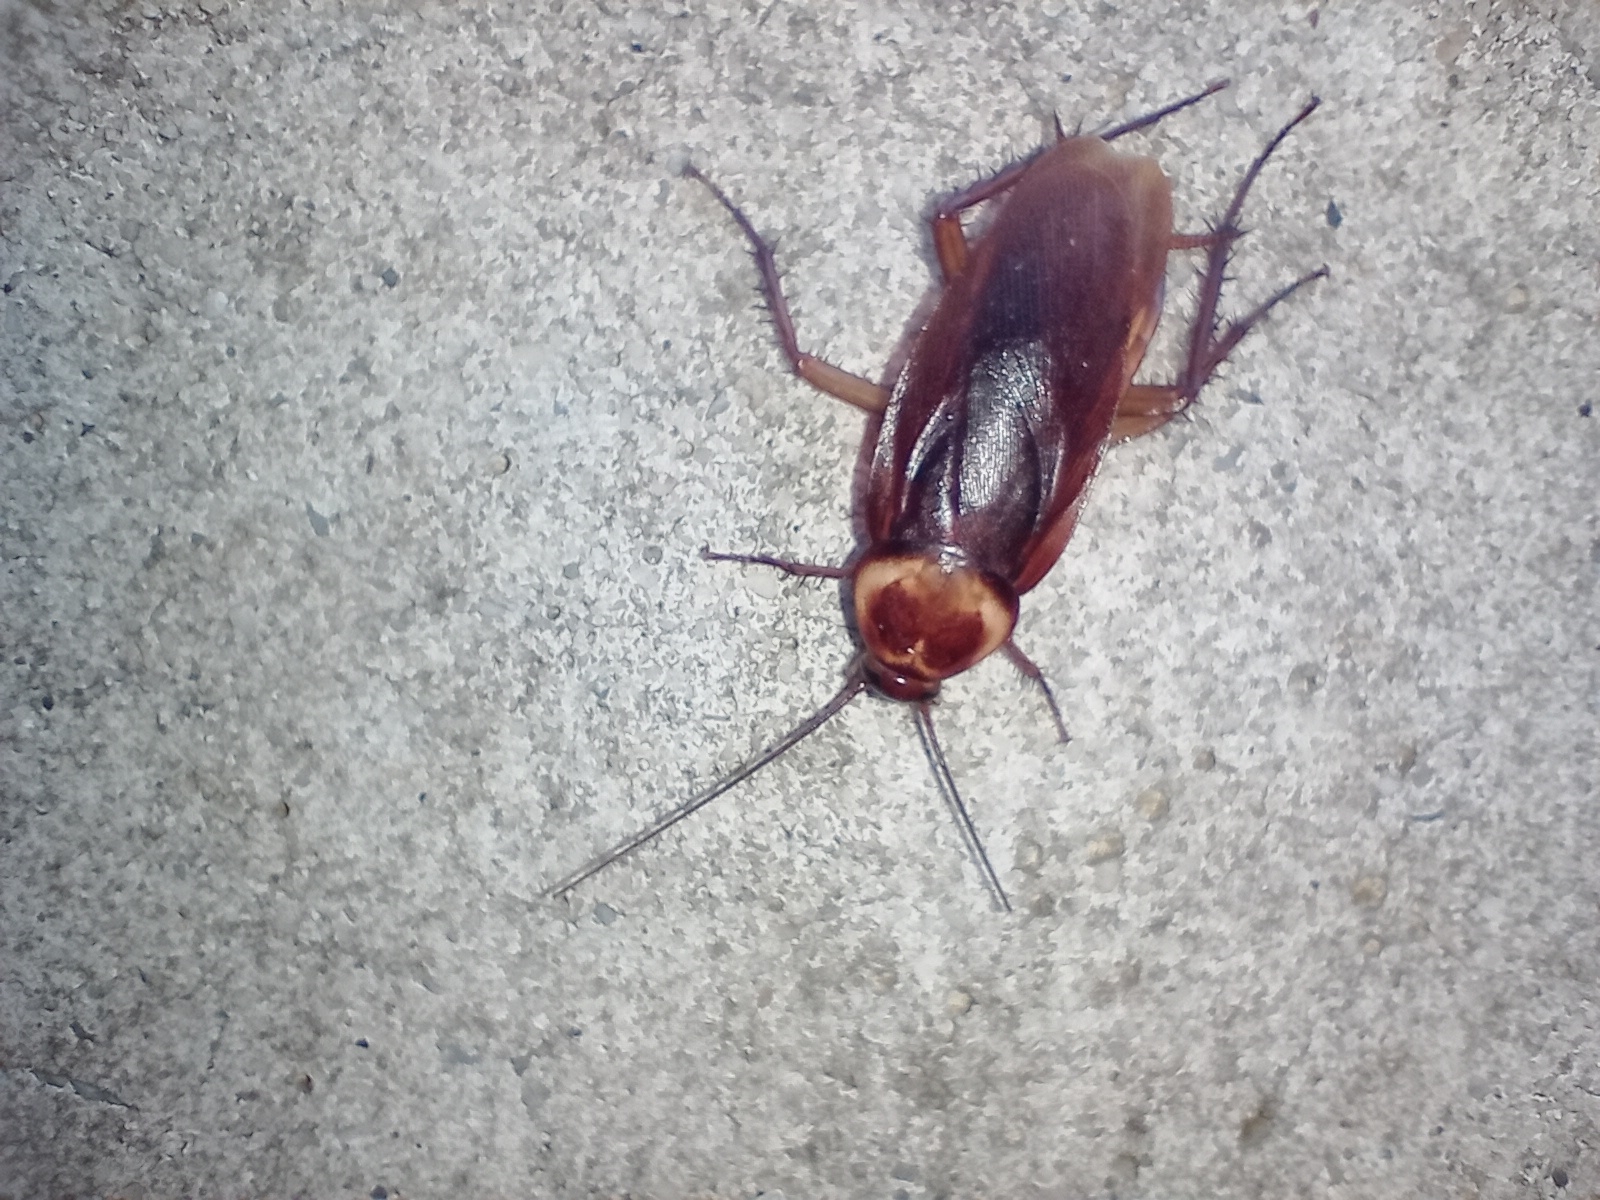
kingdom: Animalia
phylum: Arthropoda
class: Insecta
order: Blattodea
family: Blattidae
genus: Periplaneta
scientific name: Periplaneta americana
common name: American cockroach
